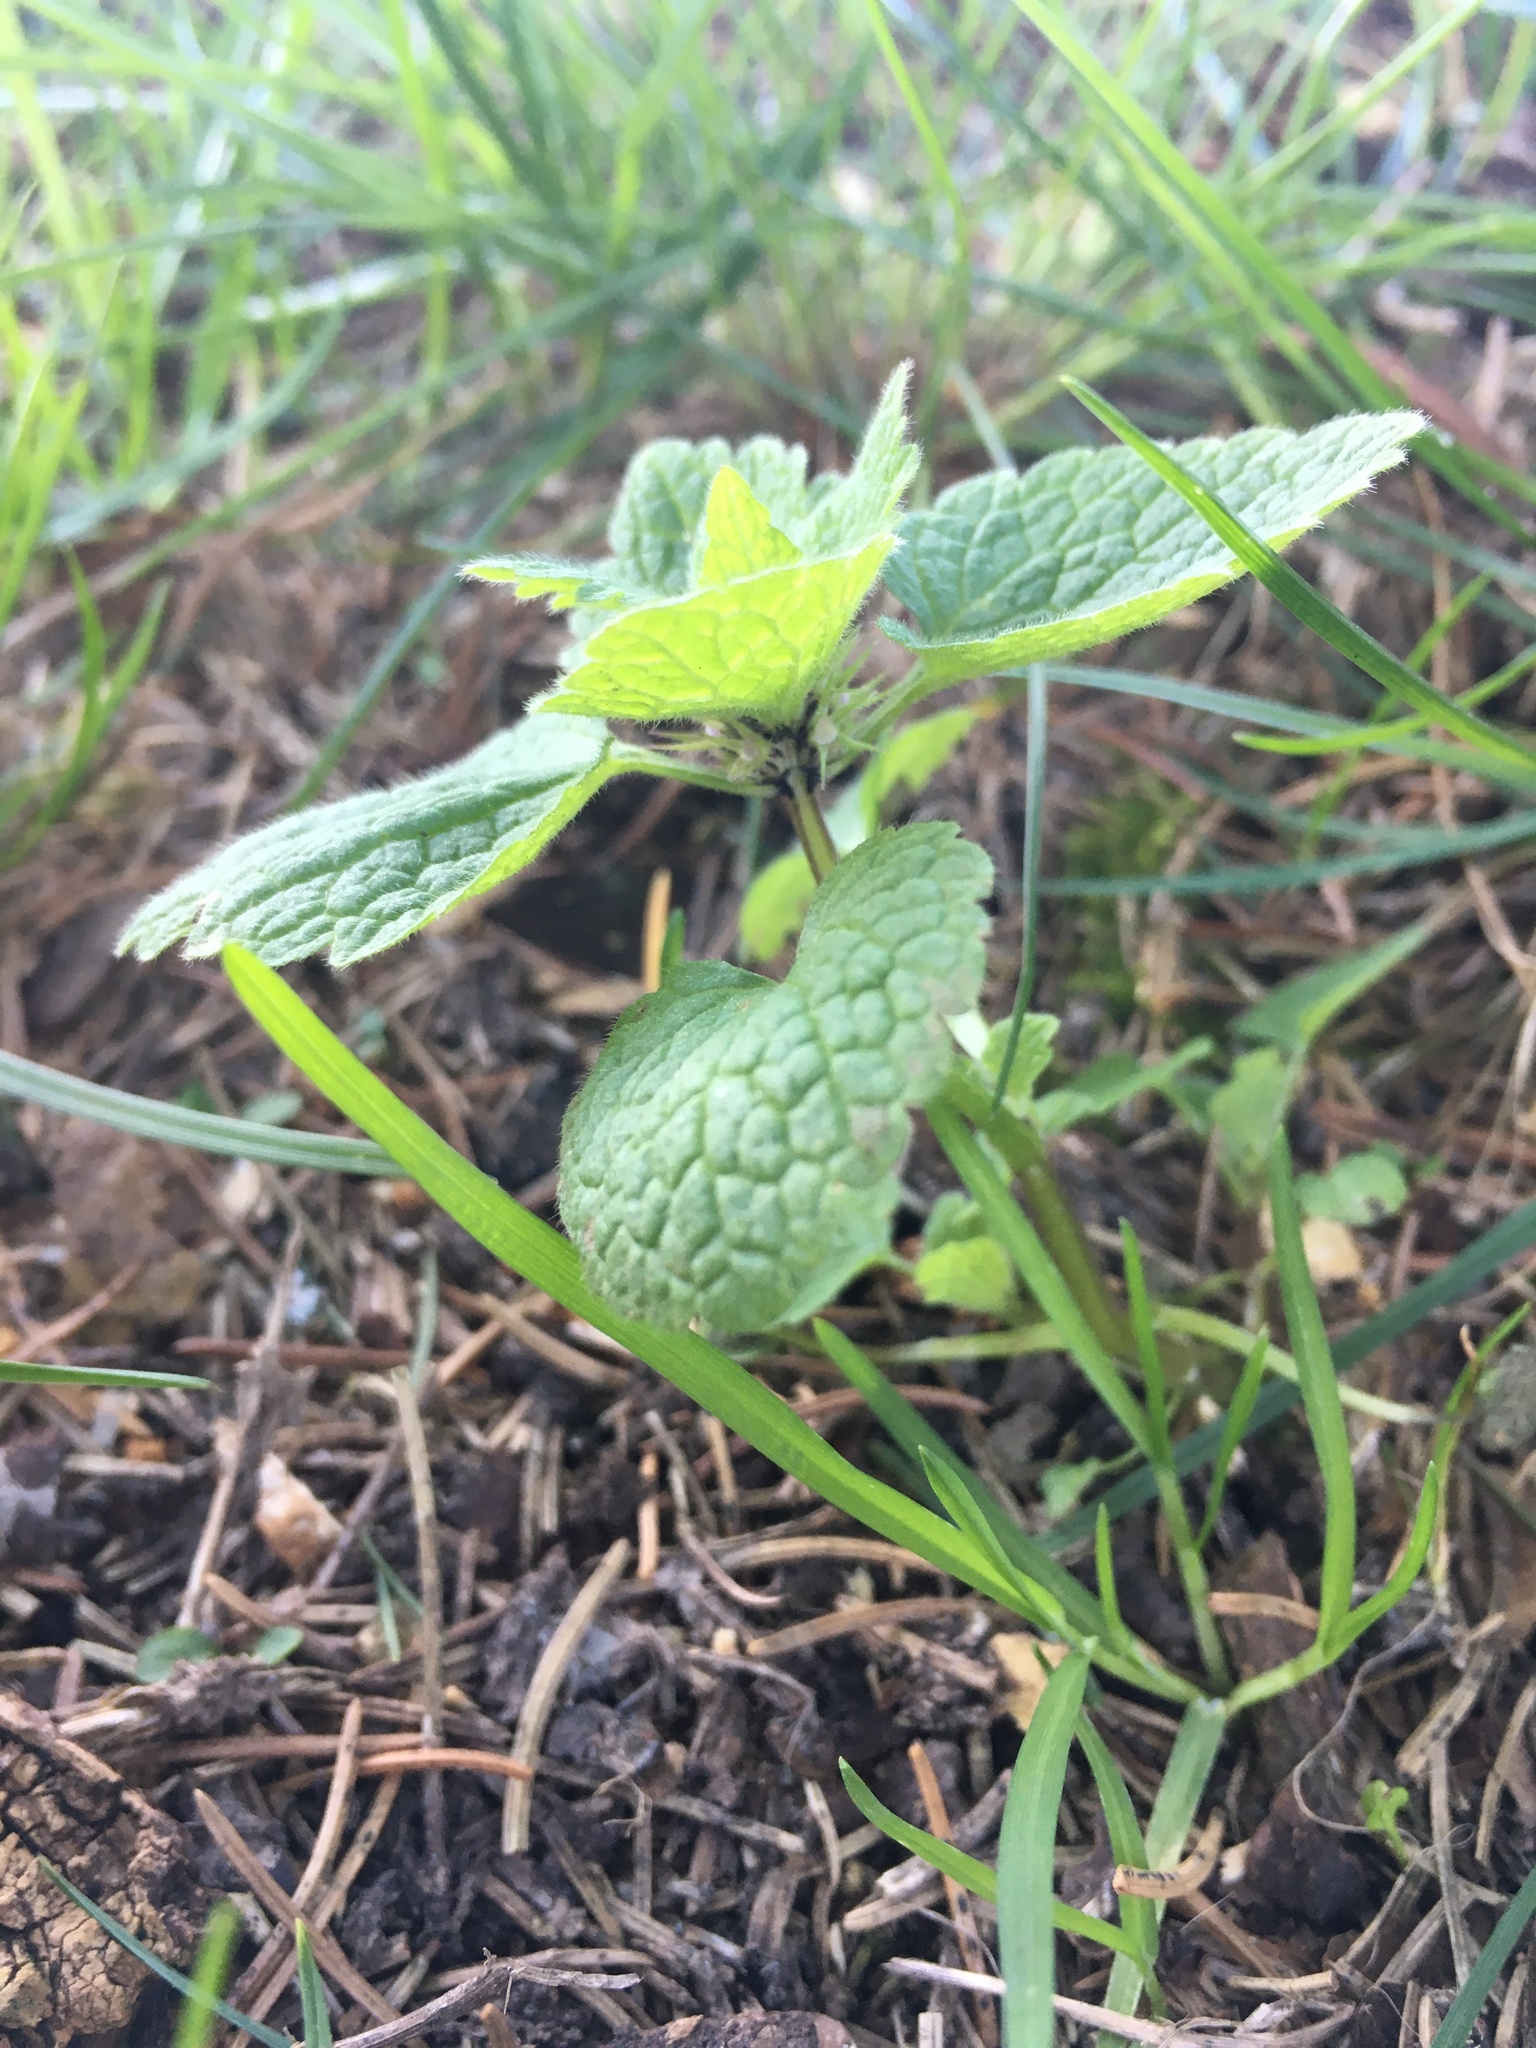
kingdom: Plantae
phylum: Tracheophyta
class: Magnoliopsida
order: Lamiales
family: Lamiaceae
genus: Lamium
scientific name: Lamium purpureum
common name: Red dead-nettle
